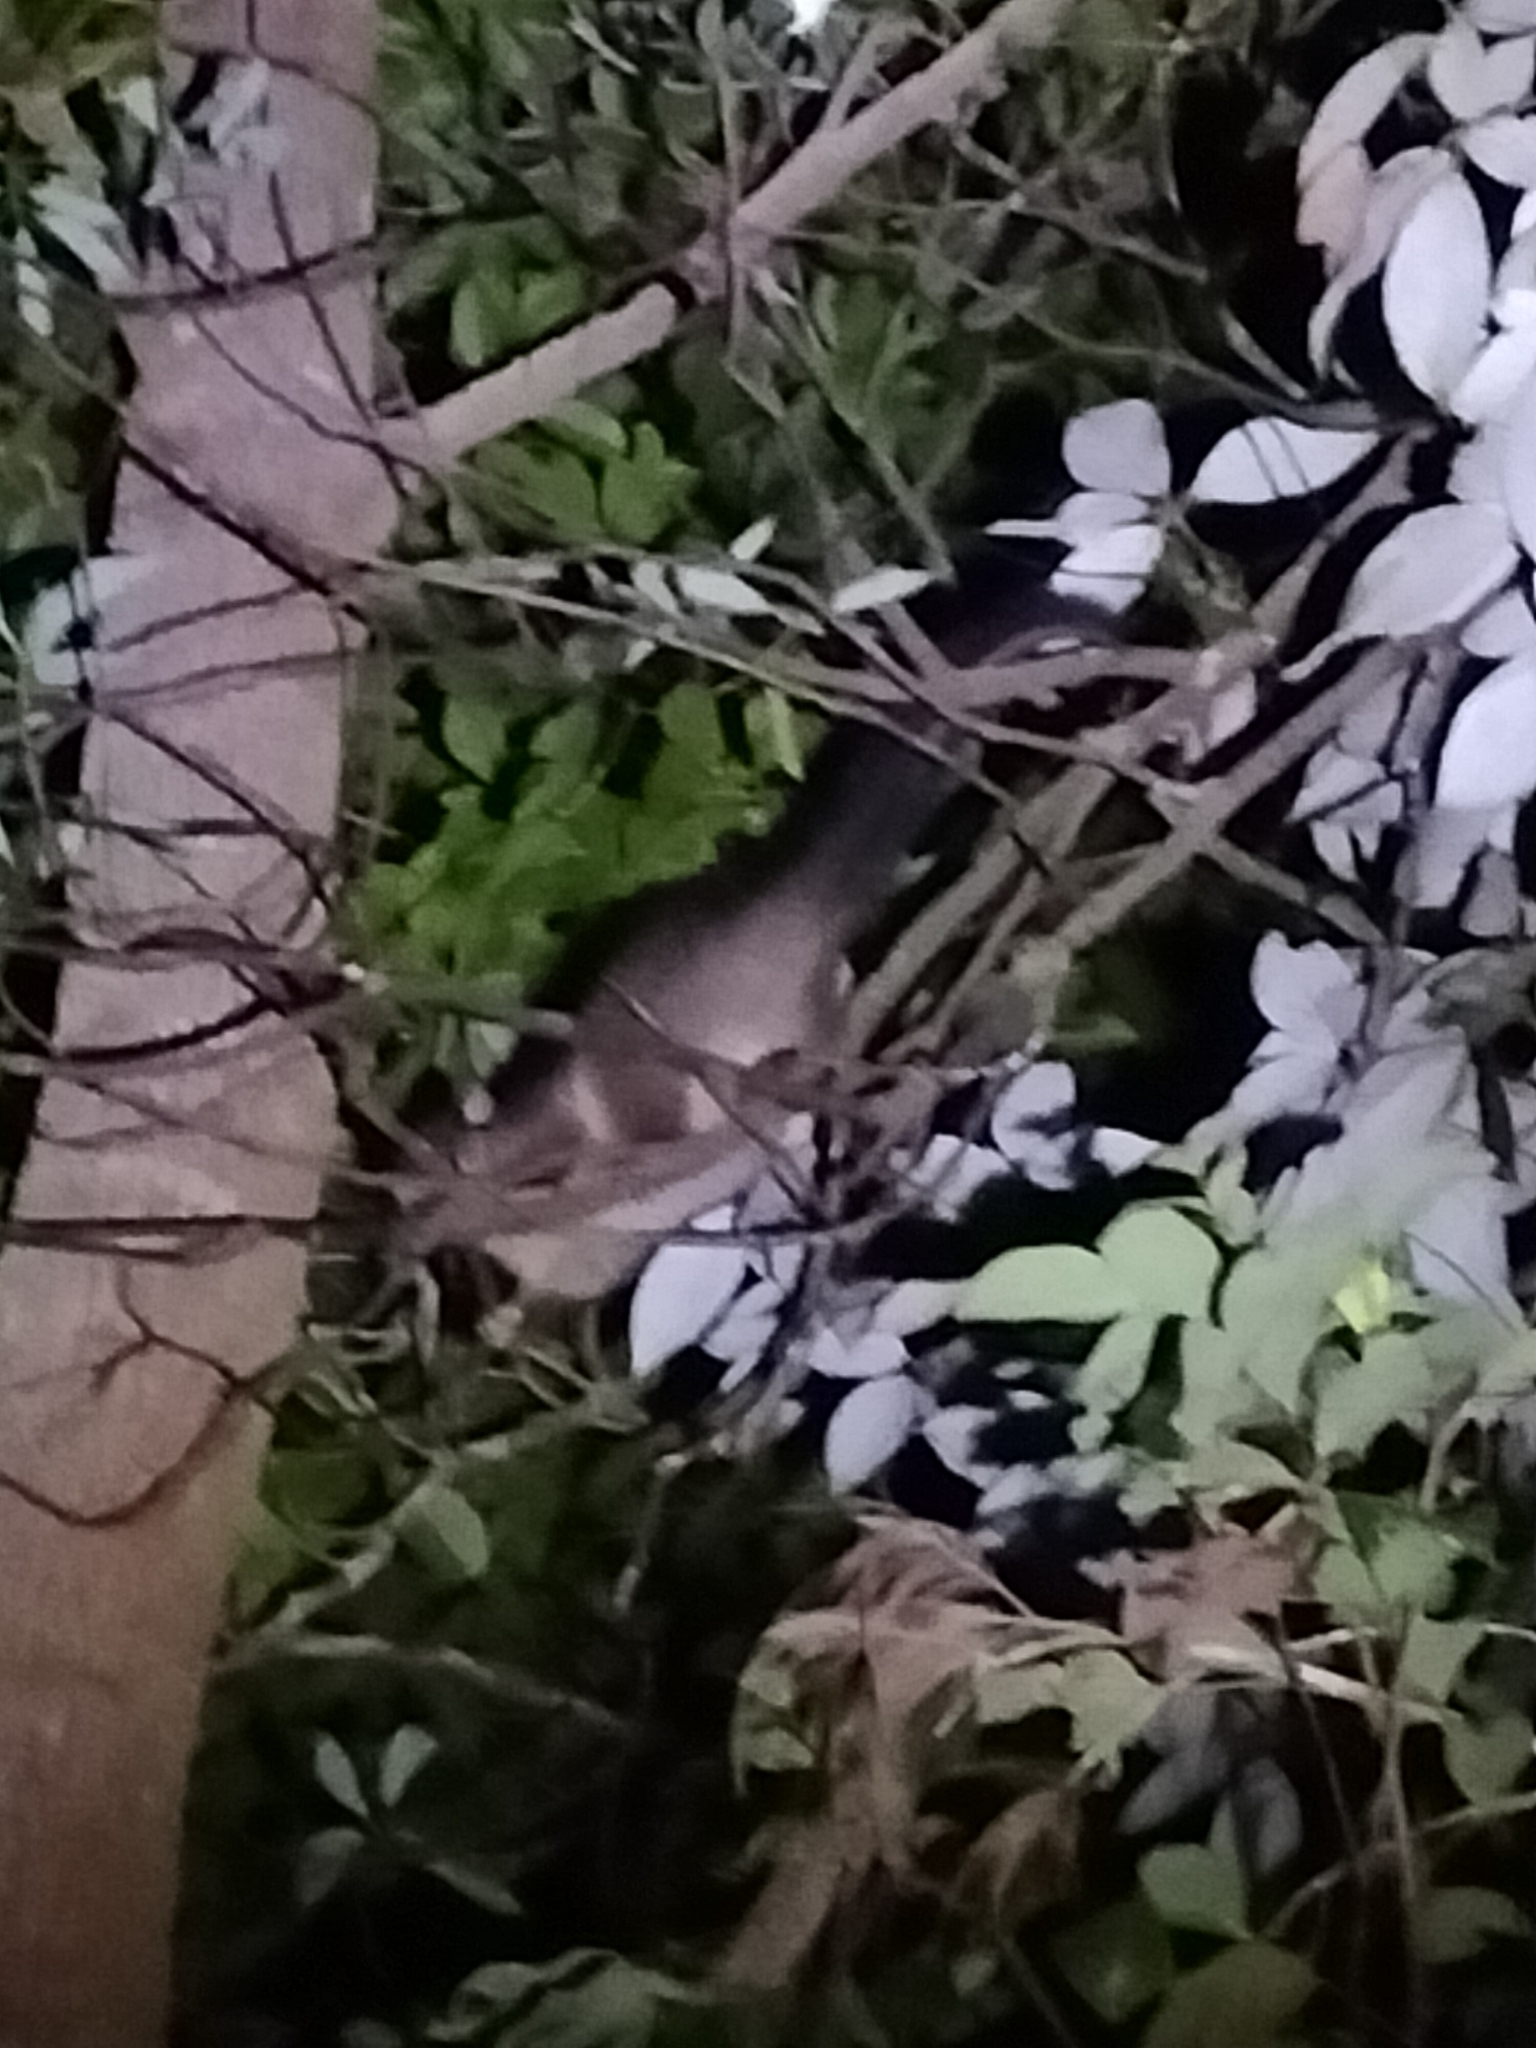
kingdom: Animalia
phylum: Chordata
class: Mammalia
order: Diprotodontia
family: Phalangeridae
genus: Trichosurus
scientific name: Trichosurus vulpecula
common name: Common brushtail
